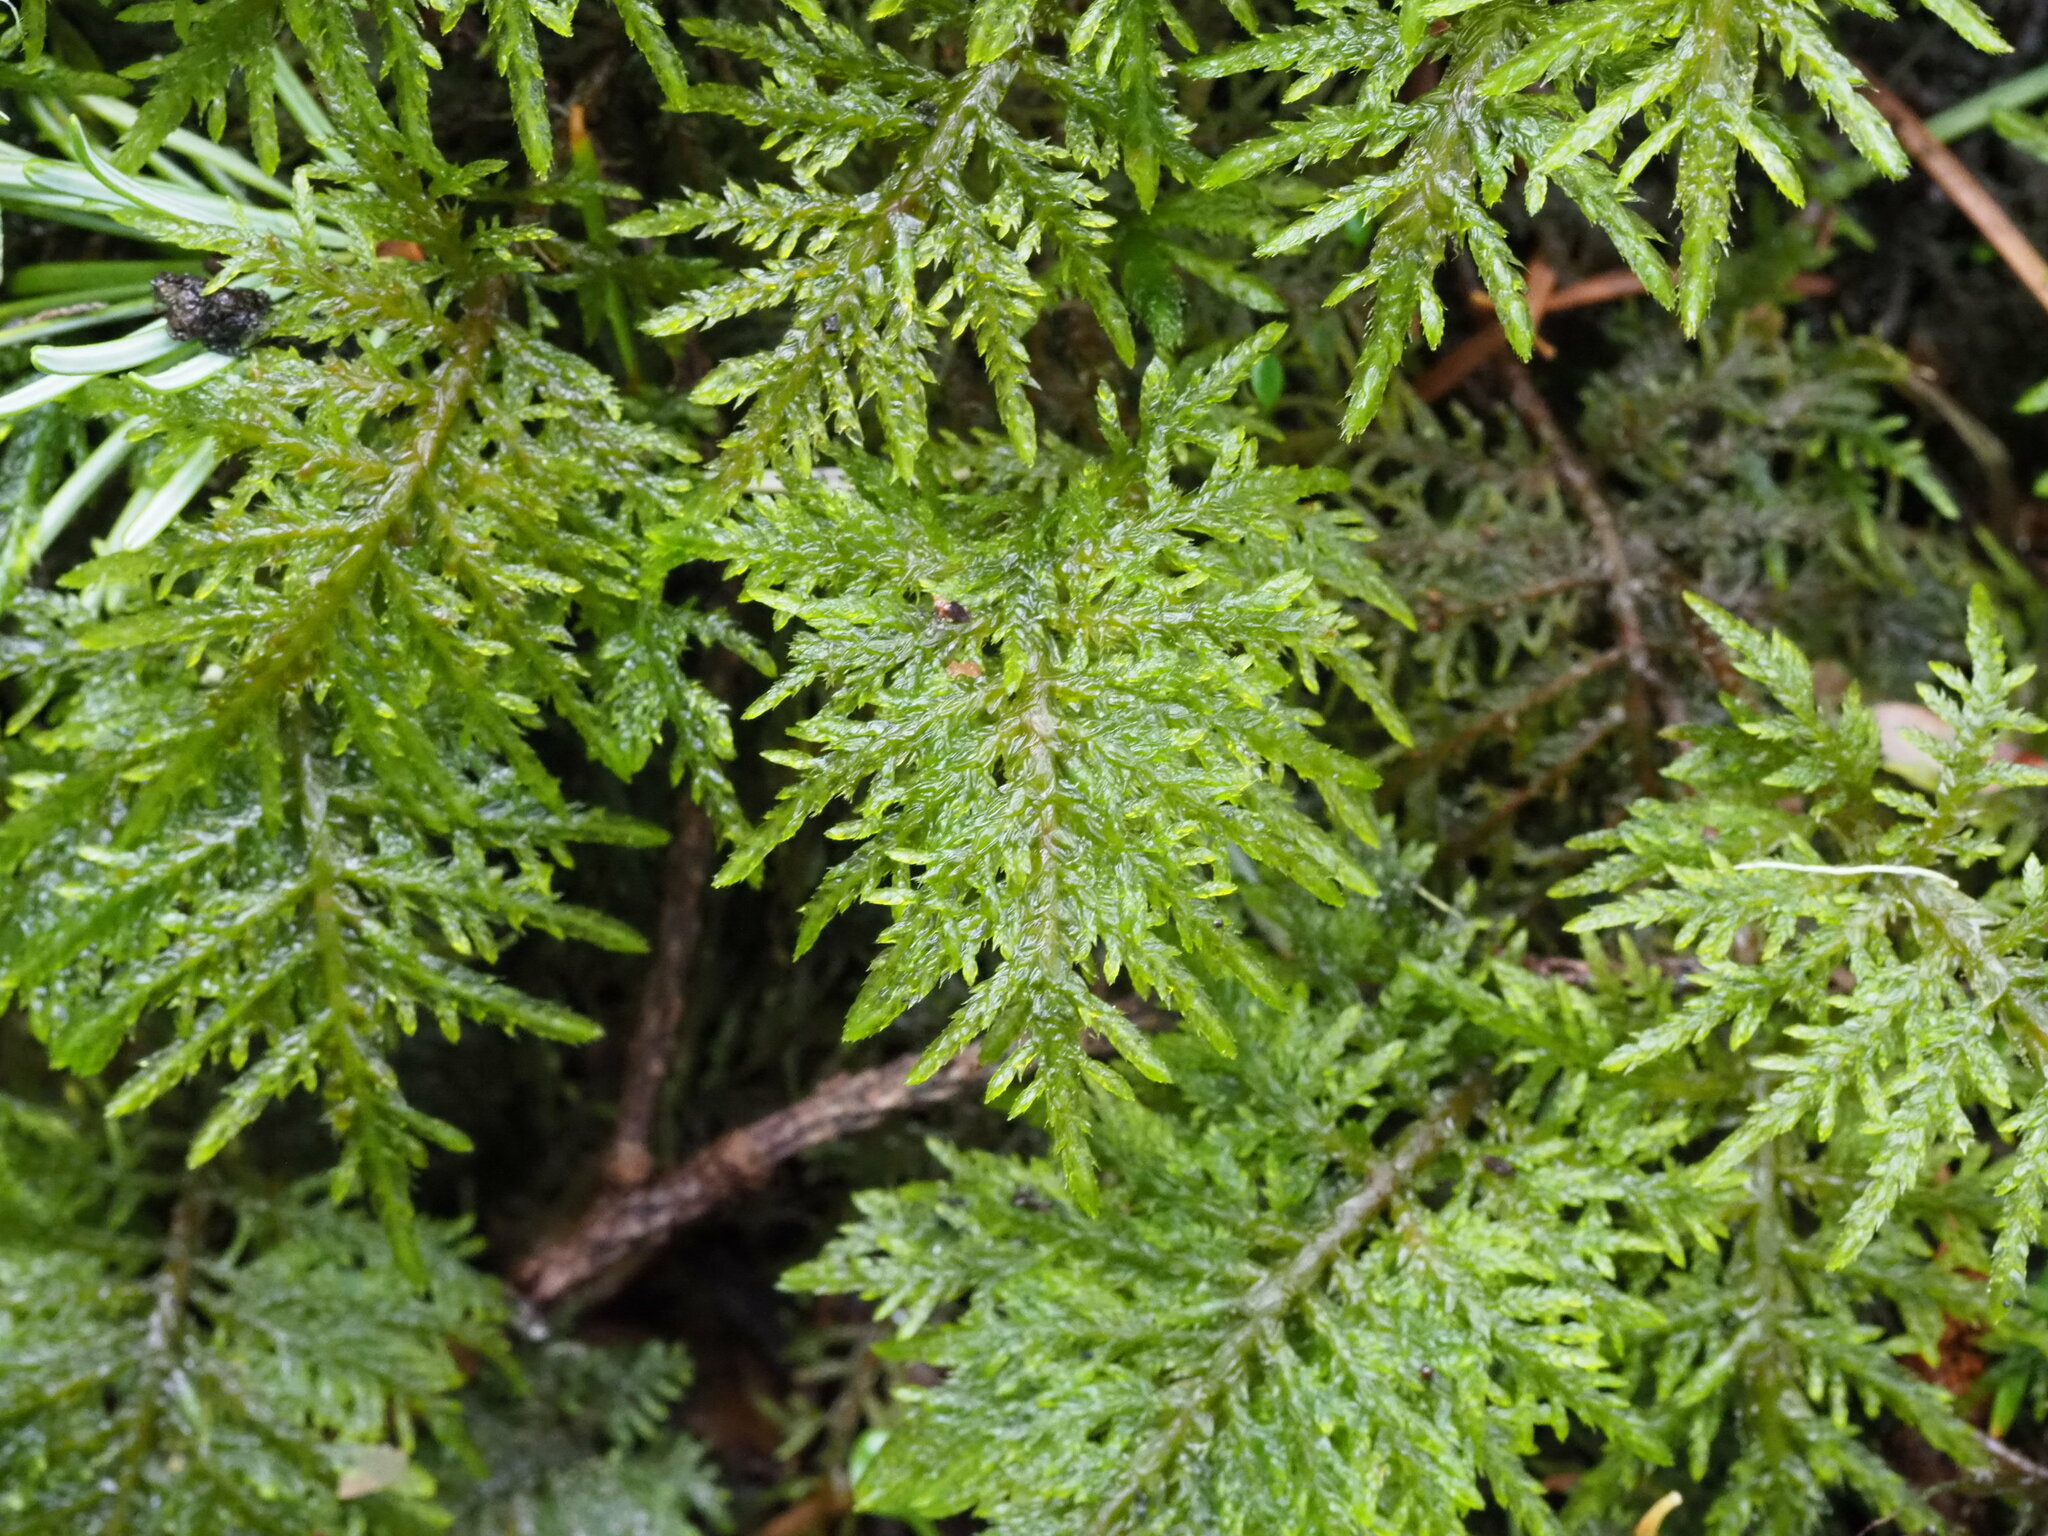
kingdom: Plantae
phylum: Bryophyta
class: Bryopsida
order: Hypnales
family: Hylocomiaceae
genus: Hylocomium
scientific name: Hylocomium splendens
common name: Stairstep moss
